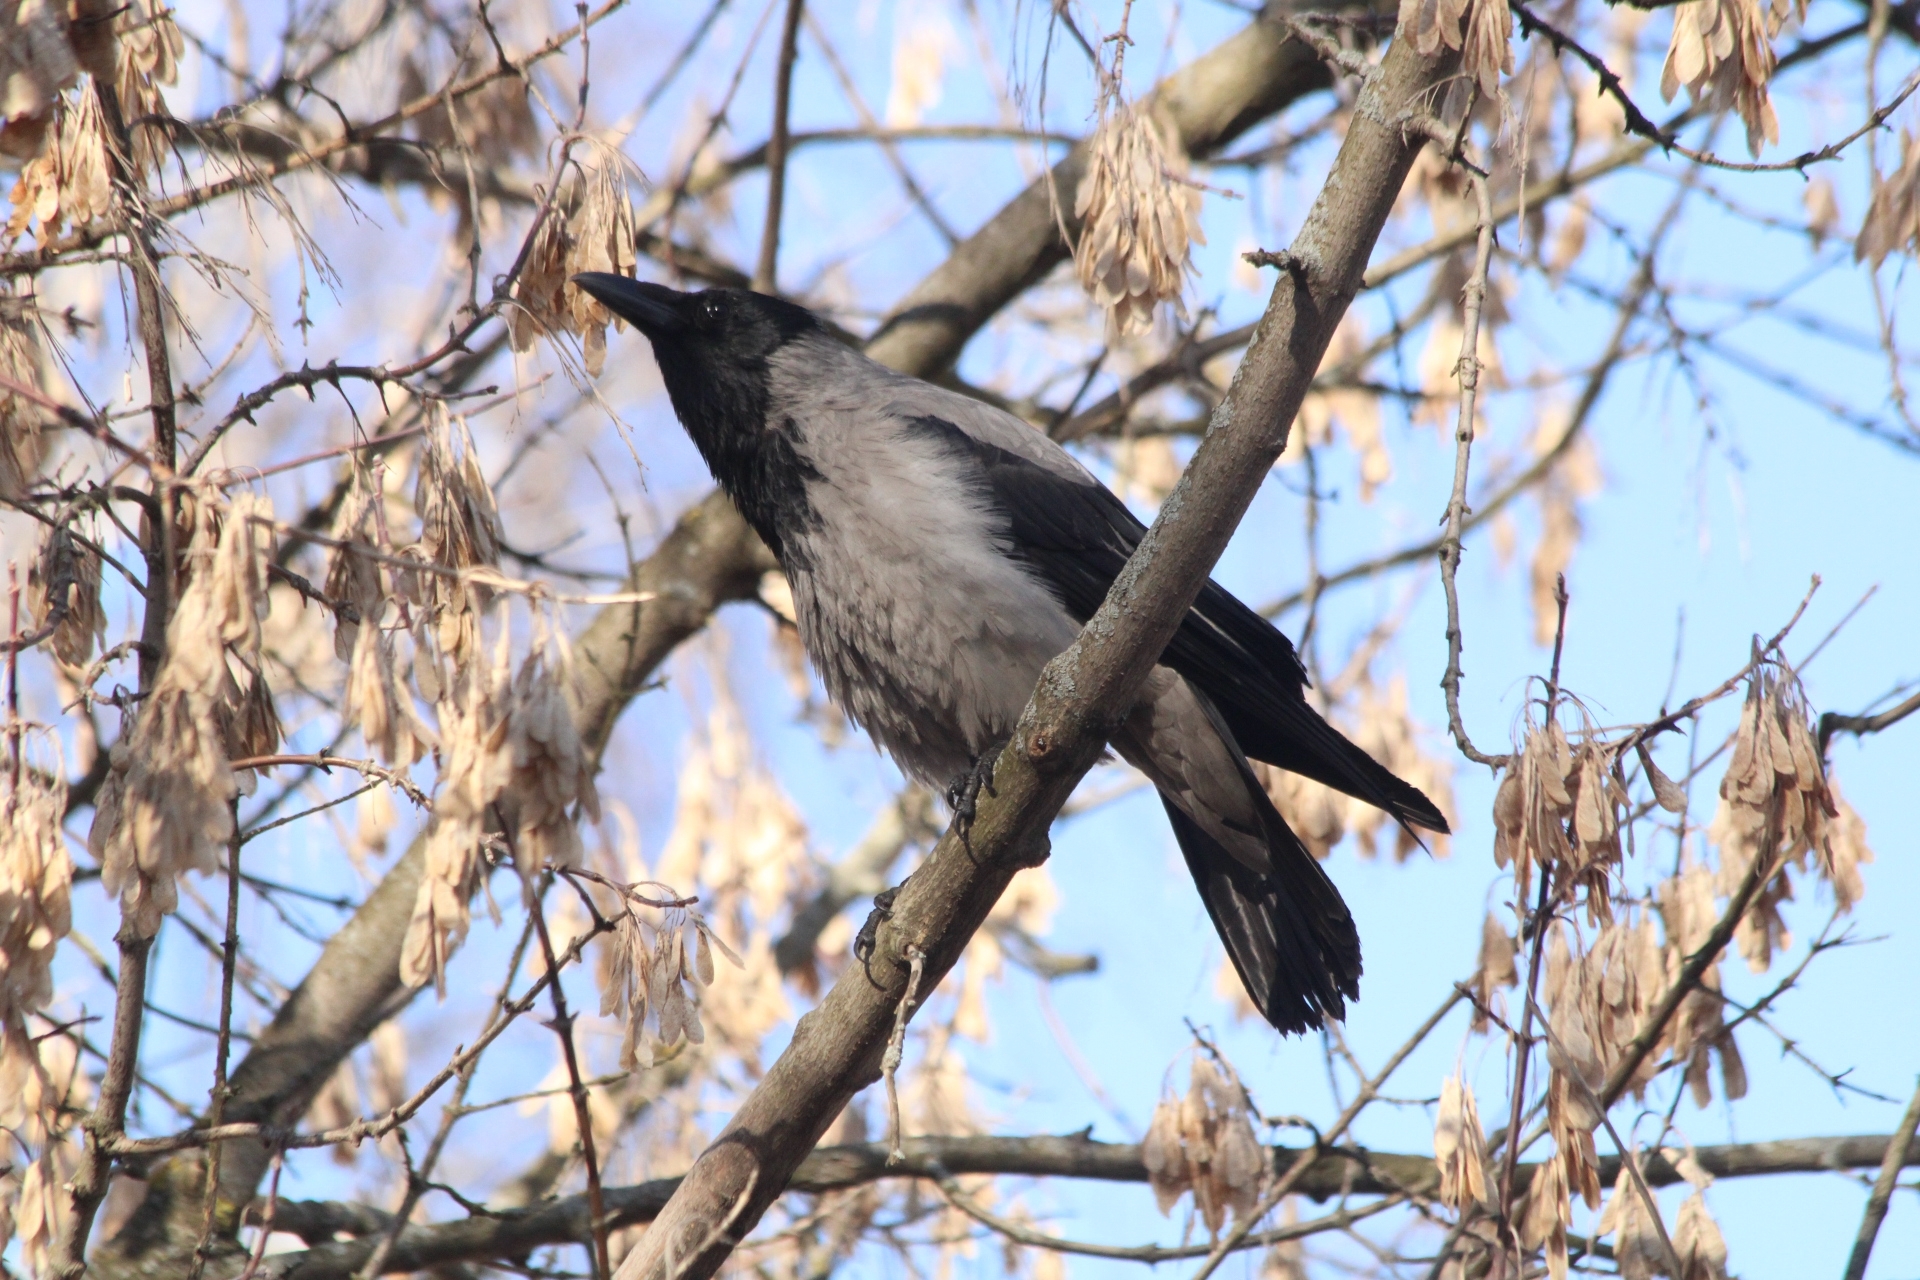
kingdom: Animalia
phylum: Chordata
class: Aves
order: Passeriformes
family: Corvidae
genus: Corvus
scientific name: Corvus cornix
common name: Hooded crow
